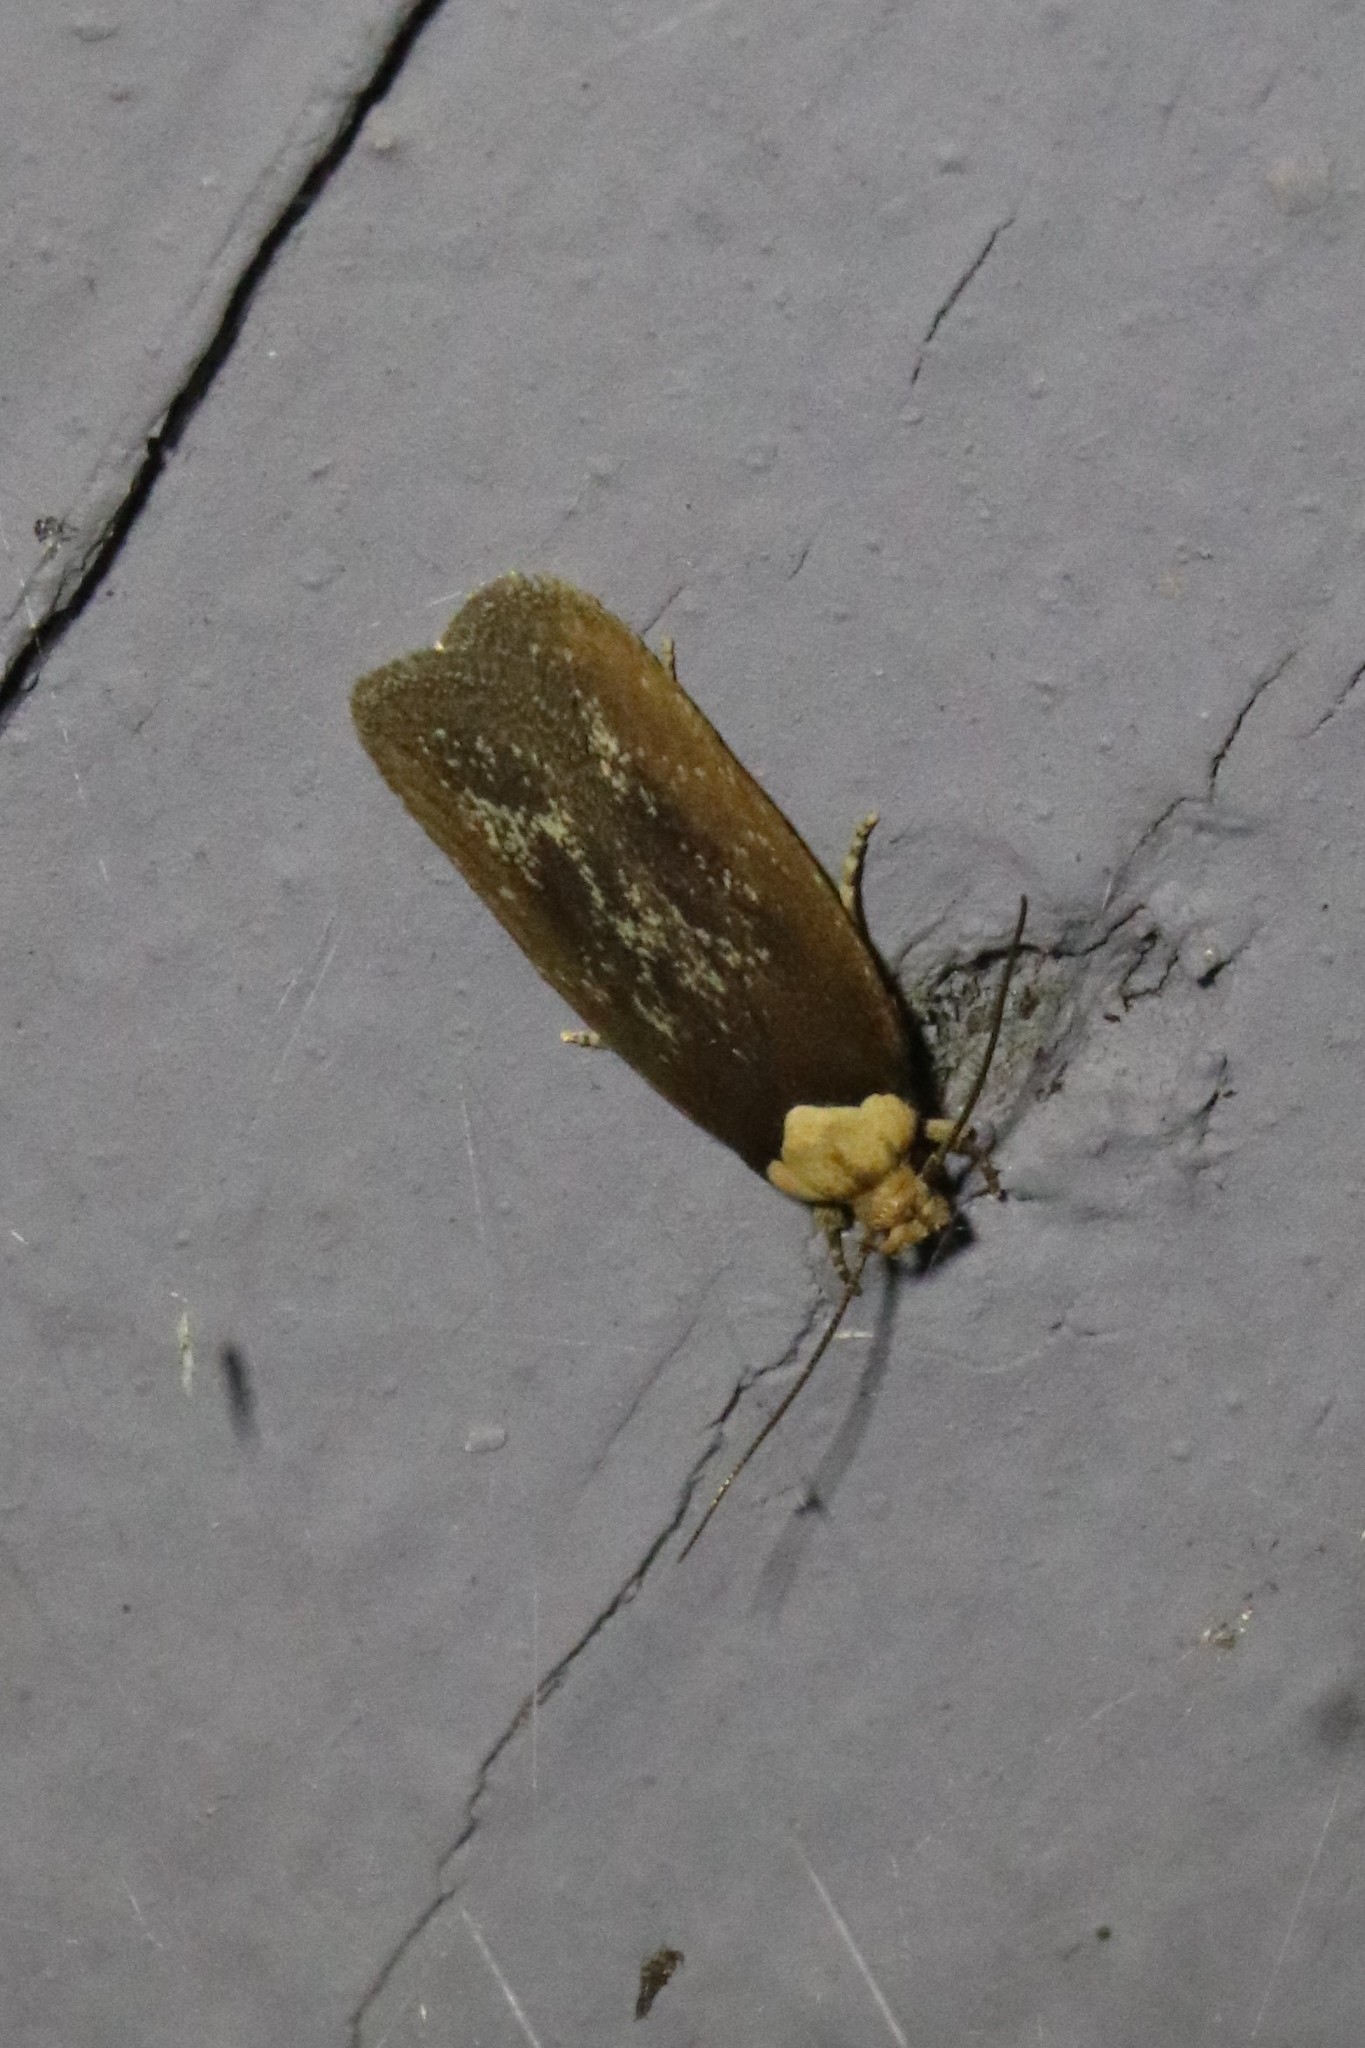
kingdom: Animalia
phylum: Arthropoda
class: Insecta
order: Lepidoptera
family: Depressariidae
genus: Depressaria
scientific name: Depressaria depressana
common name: Lost flat-body
